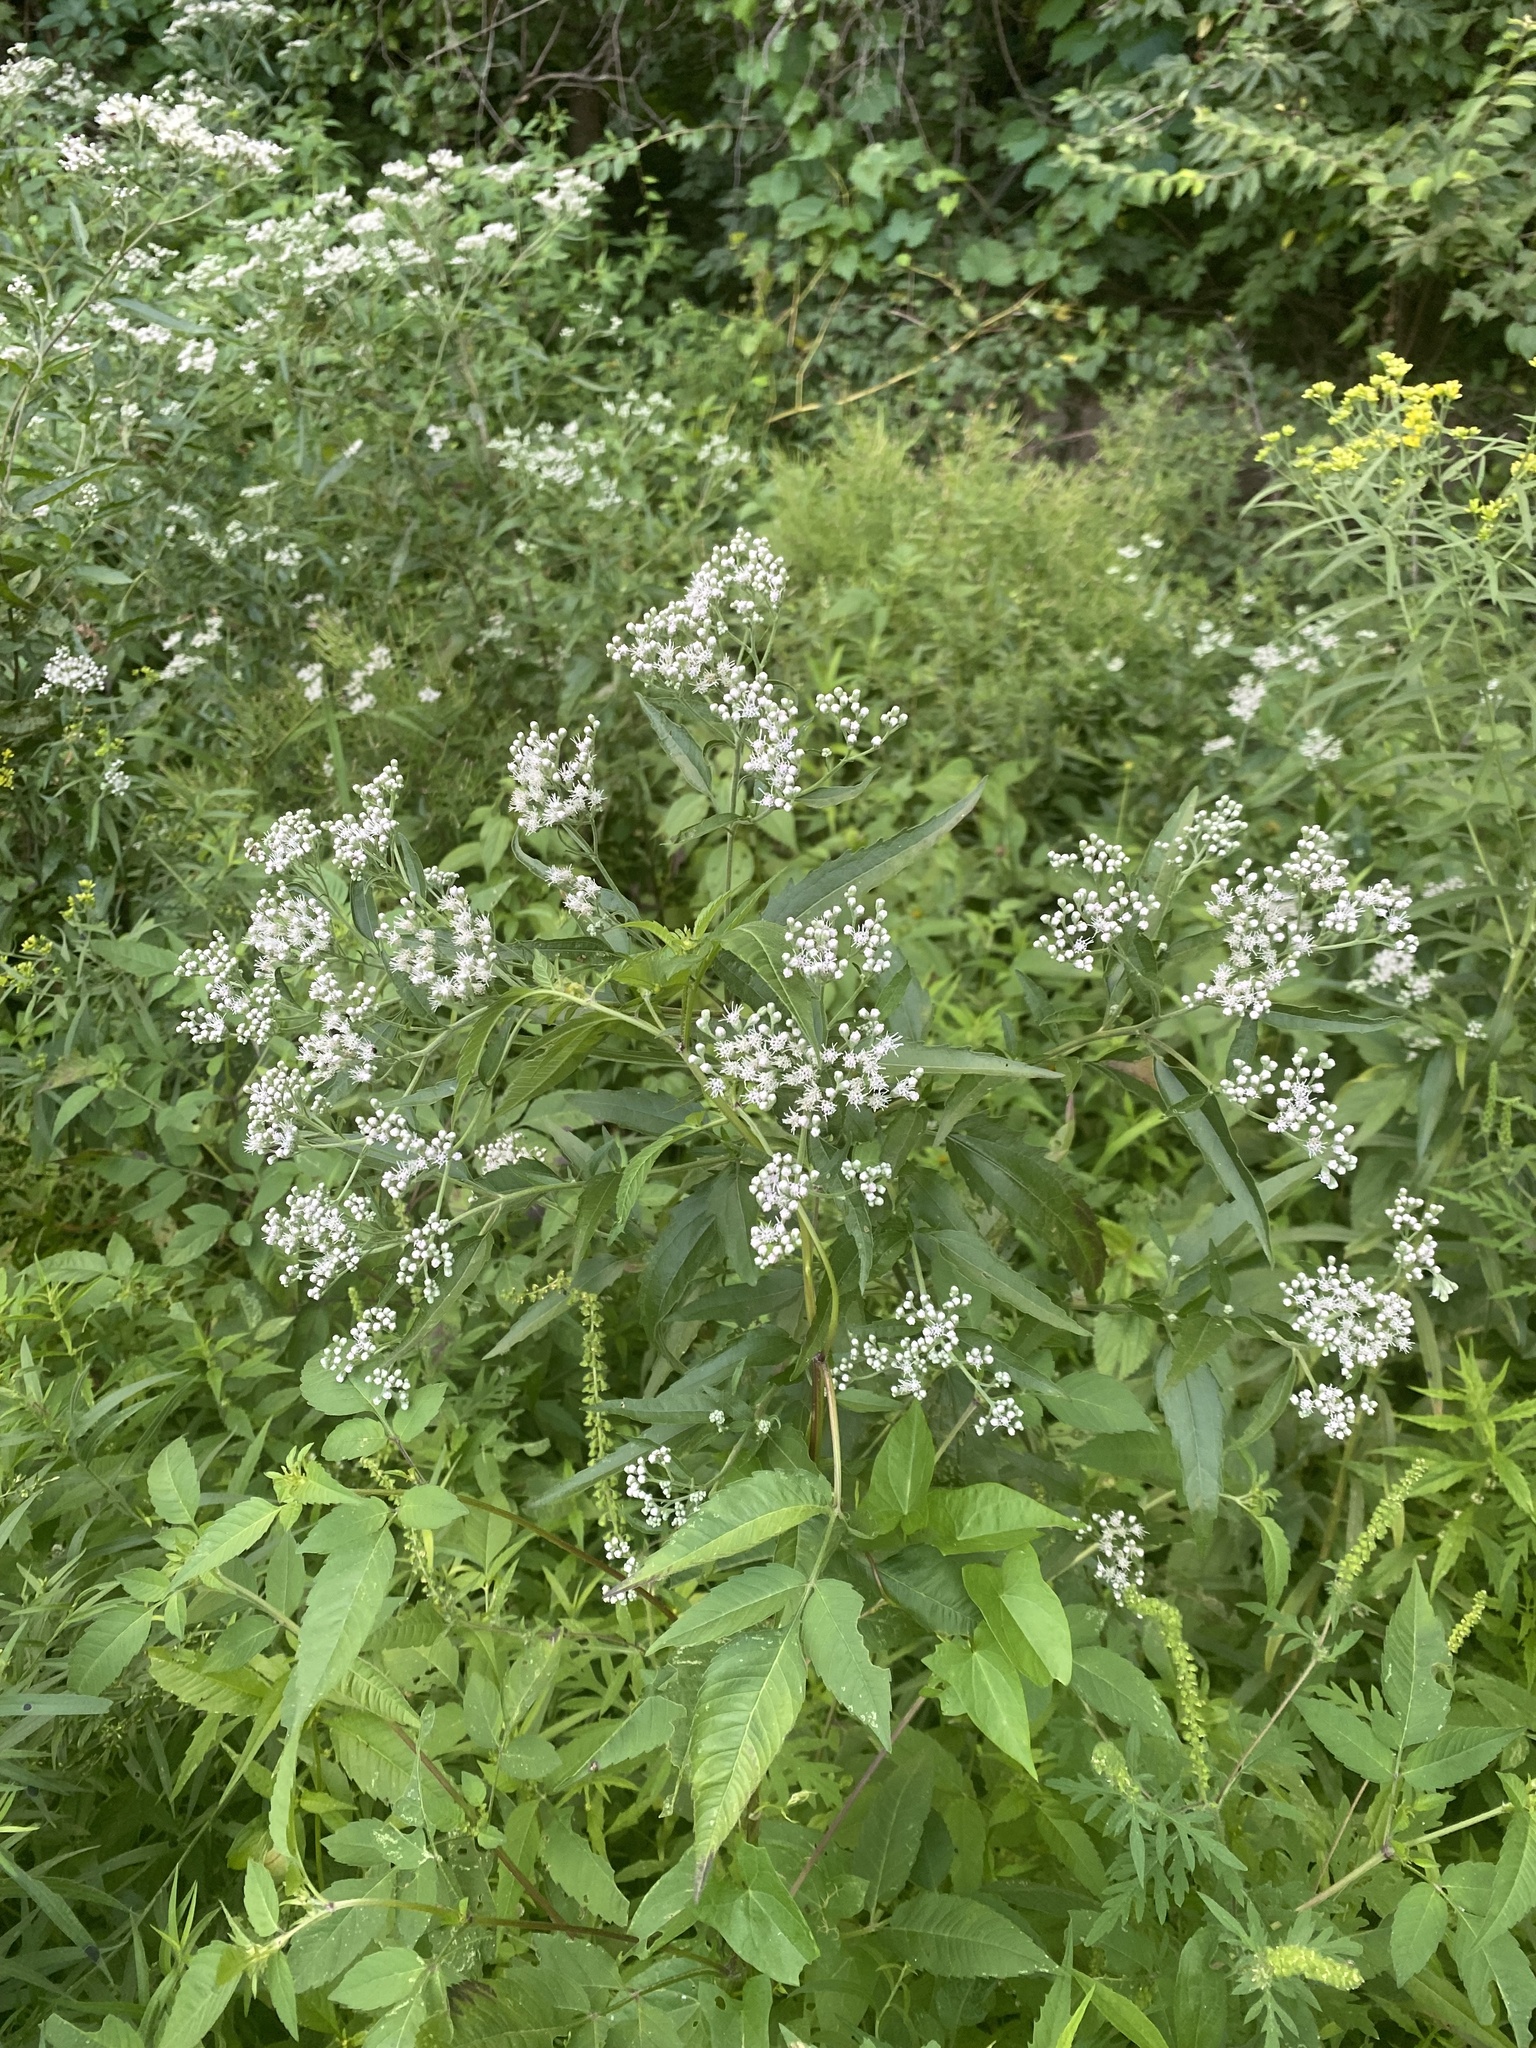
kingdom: Plantae
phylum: Tracheophyta
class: Magnoliopsida
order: Asterales
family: Asteraceae
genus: Eupatorium
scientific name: Eupatorium serotinum
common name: Late boneset
